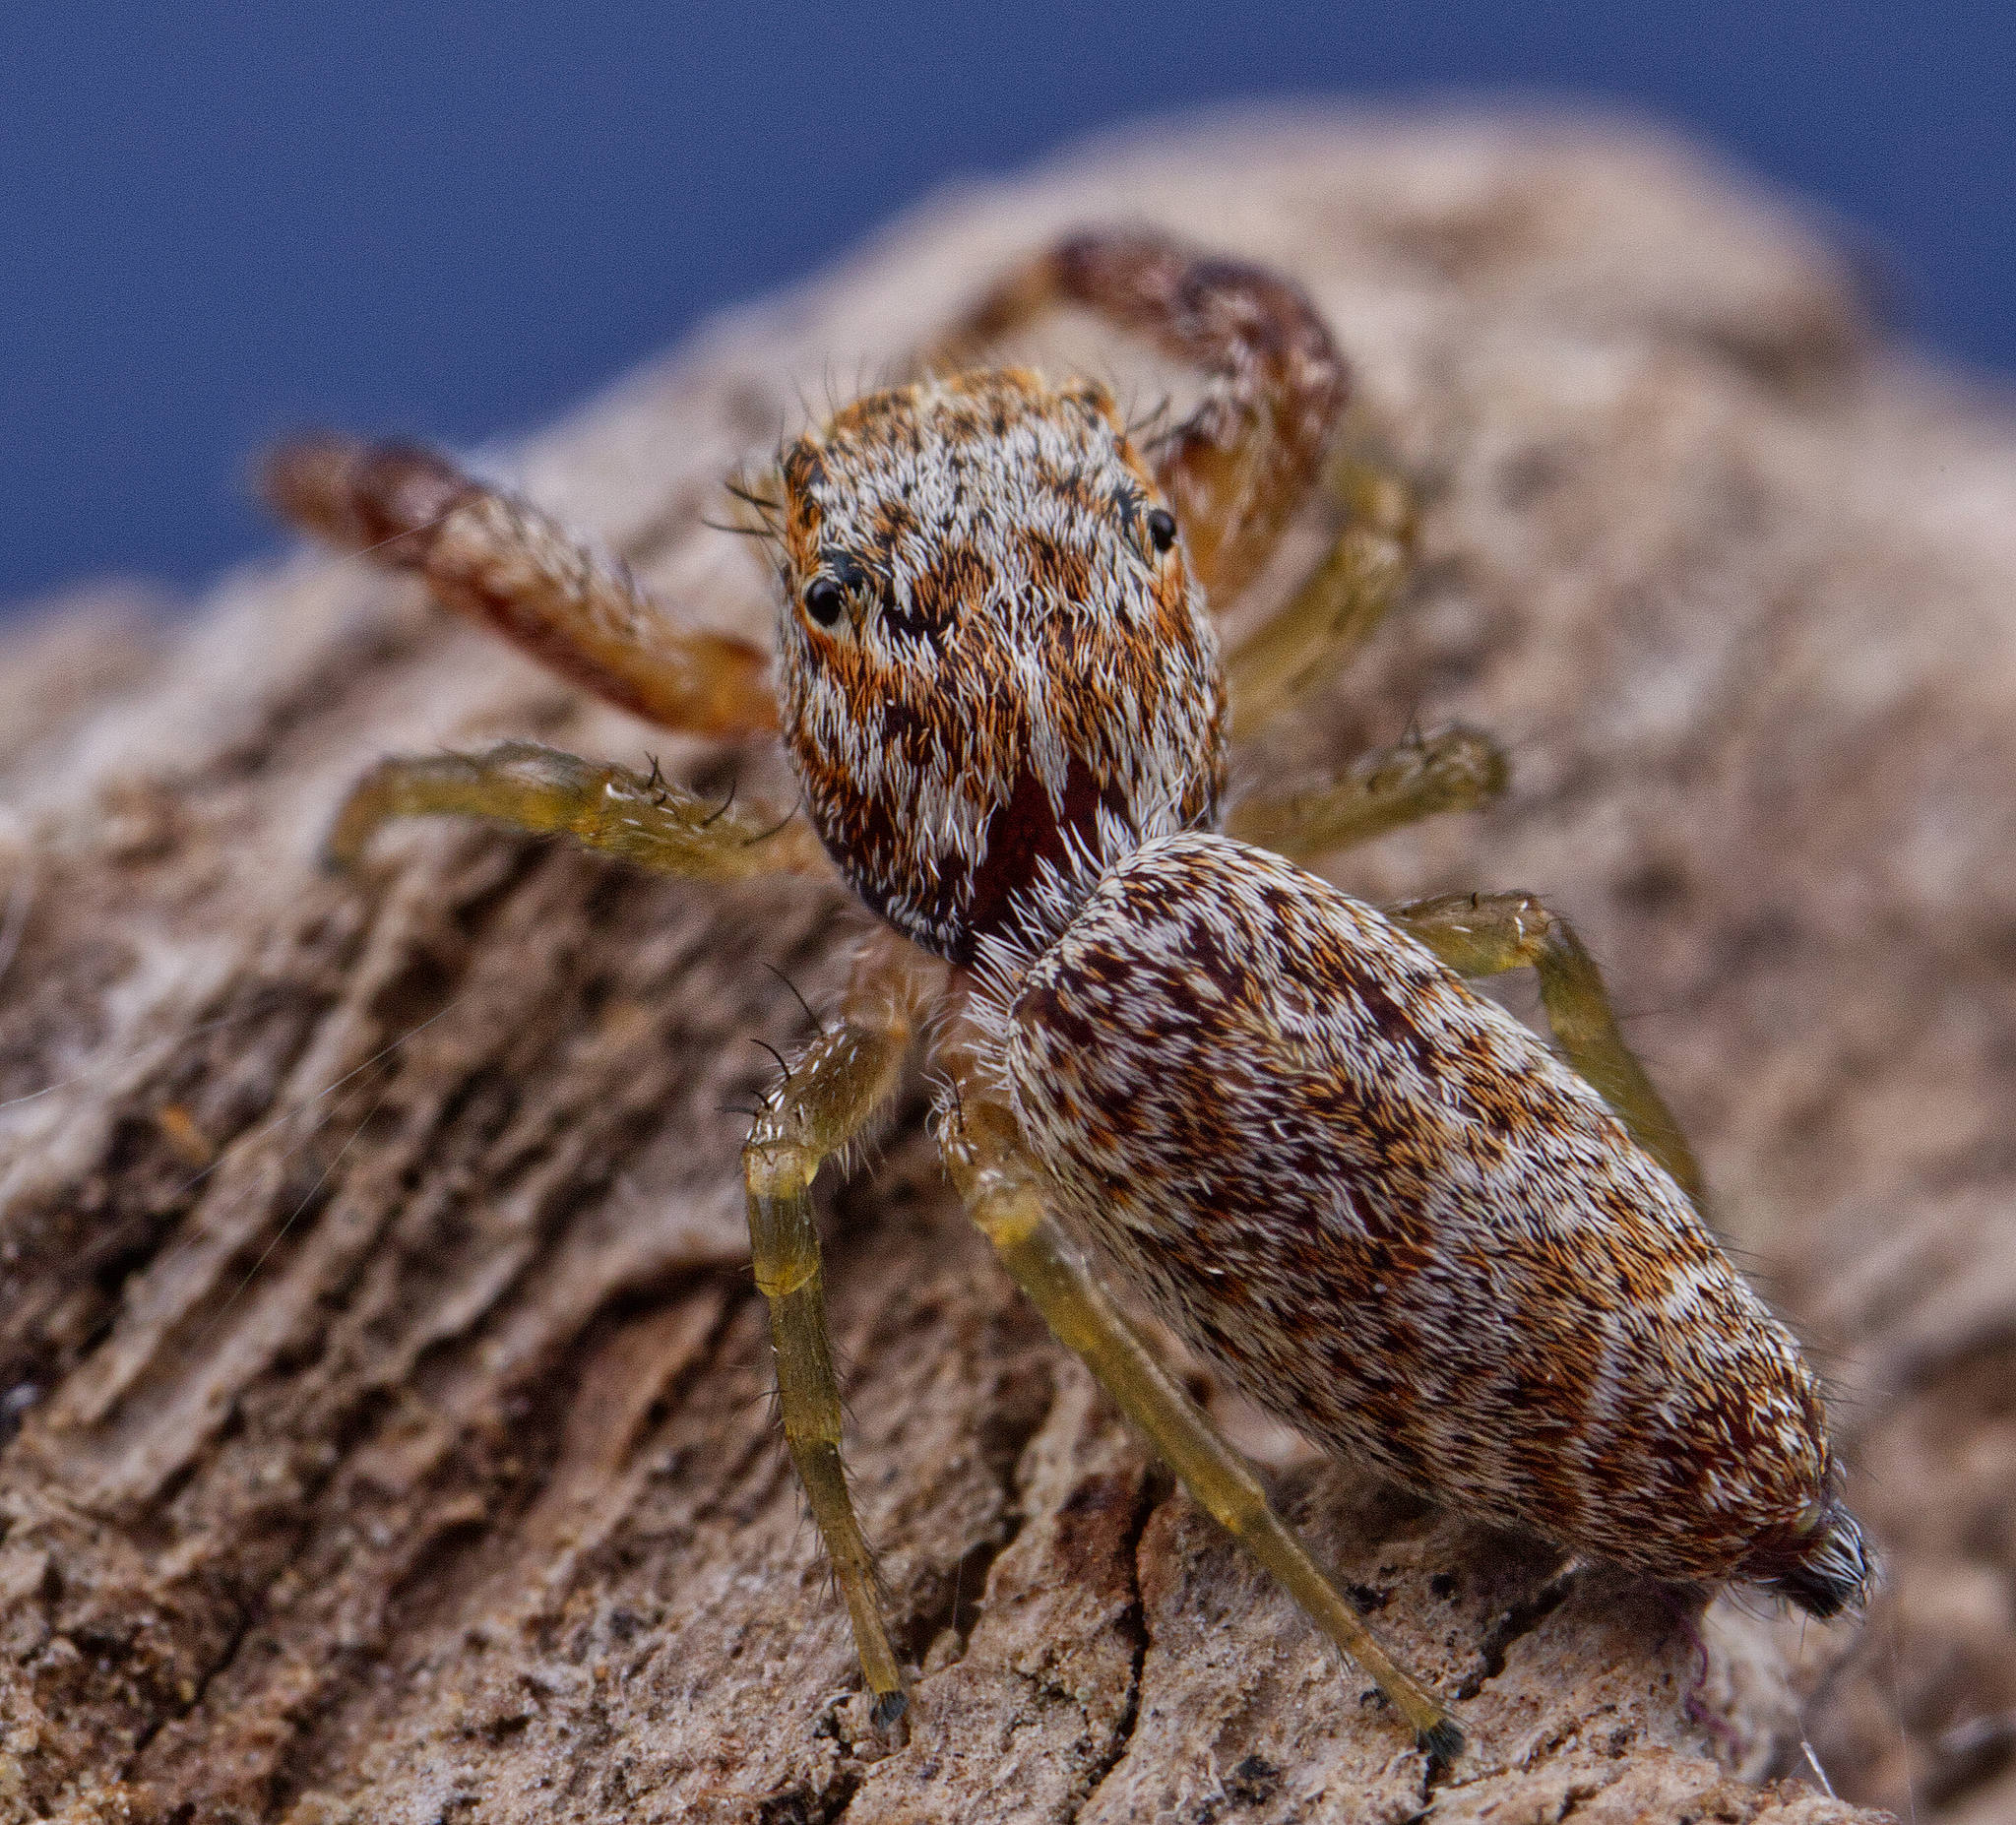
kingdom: Animalia
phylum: Arthropoda
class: Arachnida
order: Araneae
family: Salticidae
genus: Hentzia
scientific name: Hentzia palmarum
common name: Common hentz jumping spider
